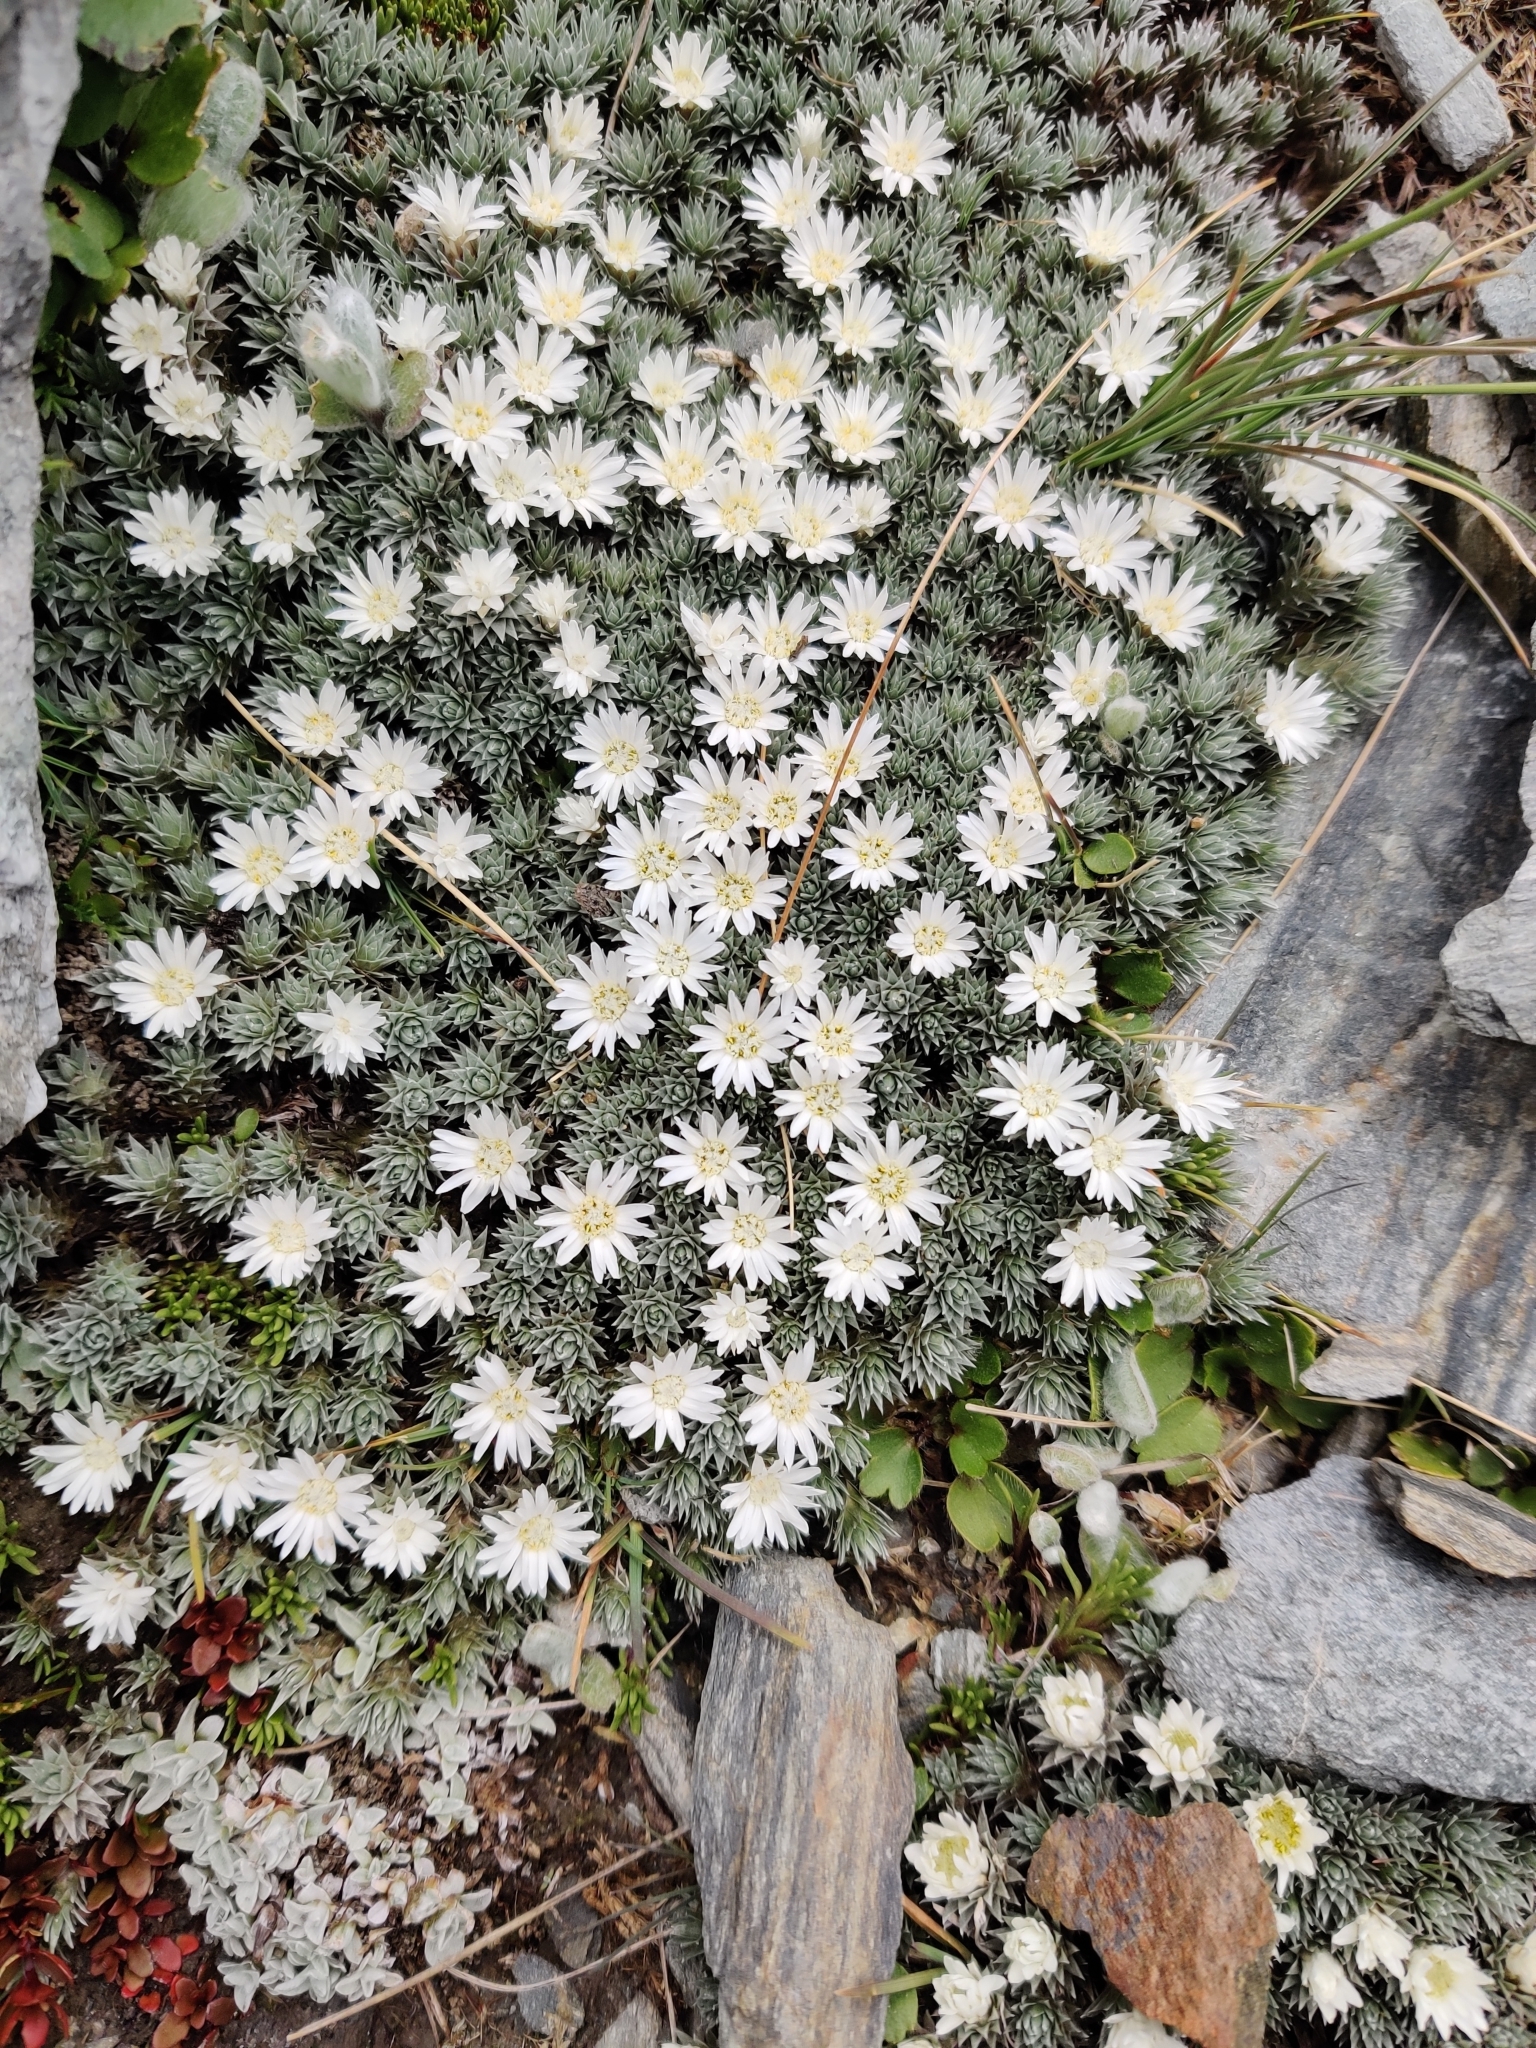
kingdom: Plantae
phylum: Tracheophyta
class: Magnoliopsida
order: Asterales
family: Asteraceae
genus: Raoulia
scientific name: Raoulia grandiflora
